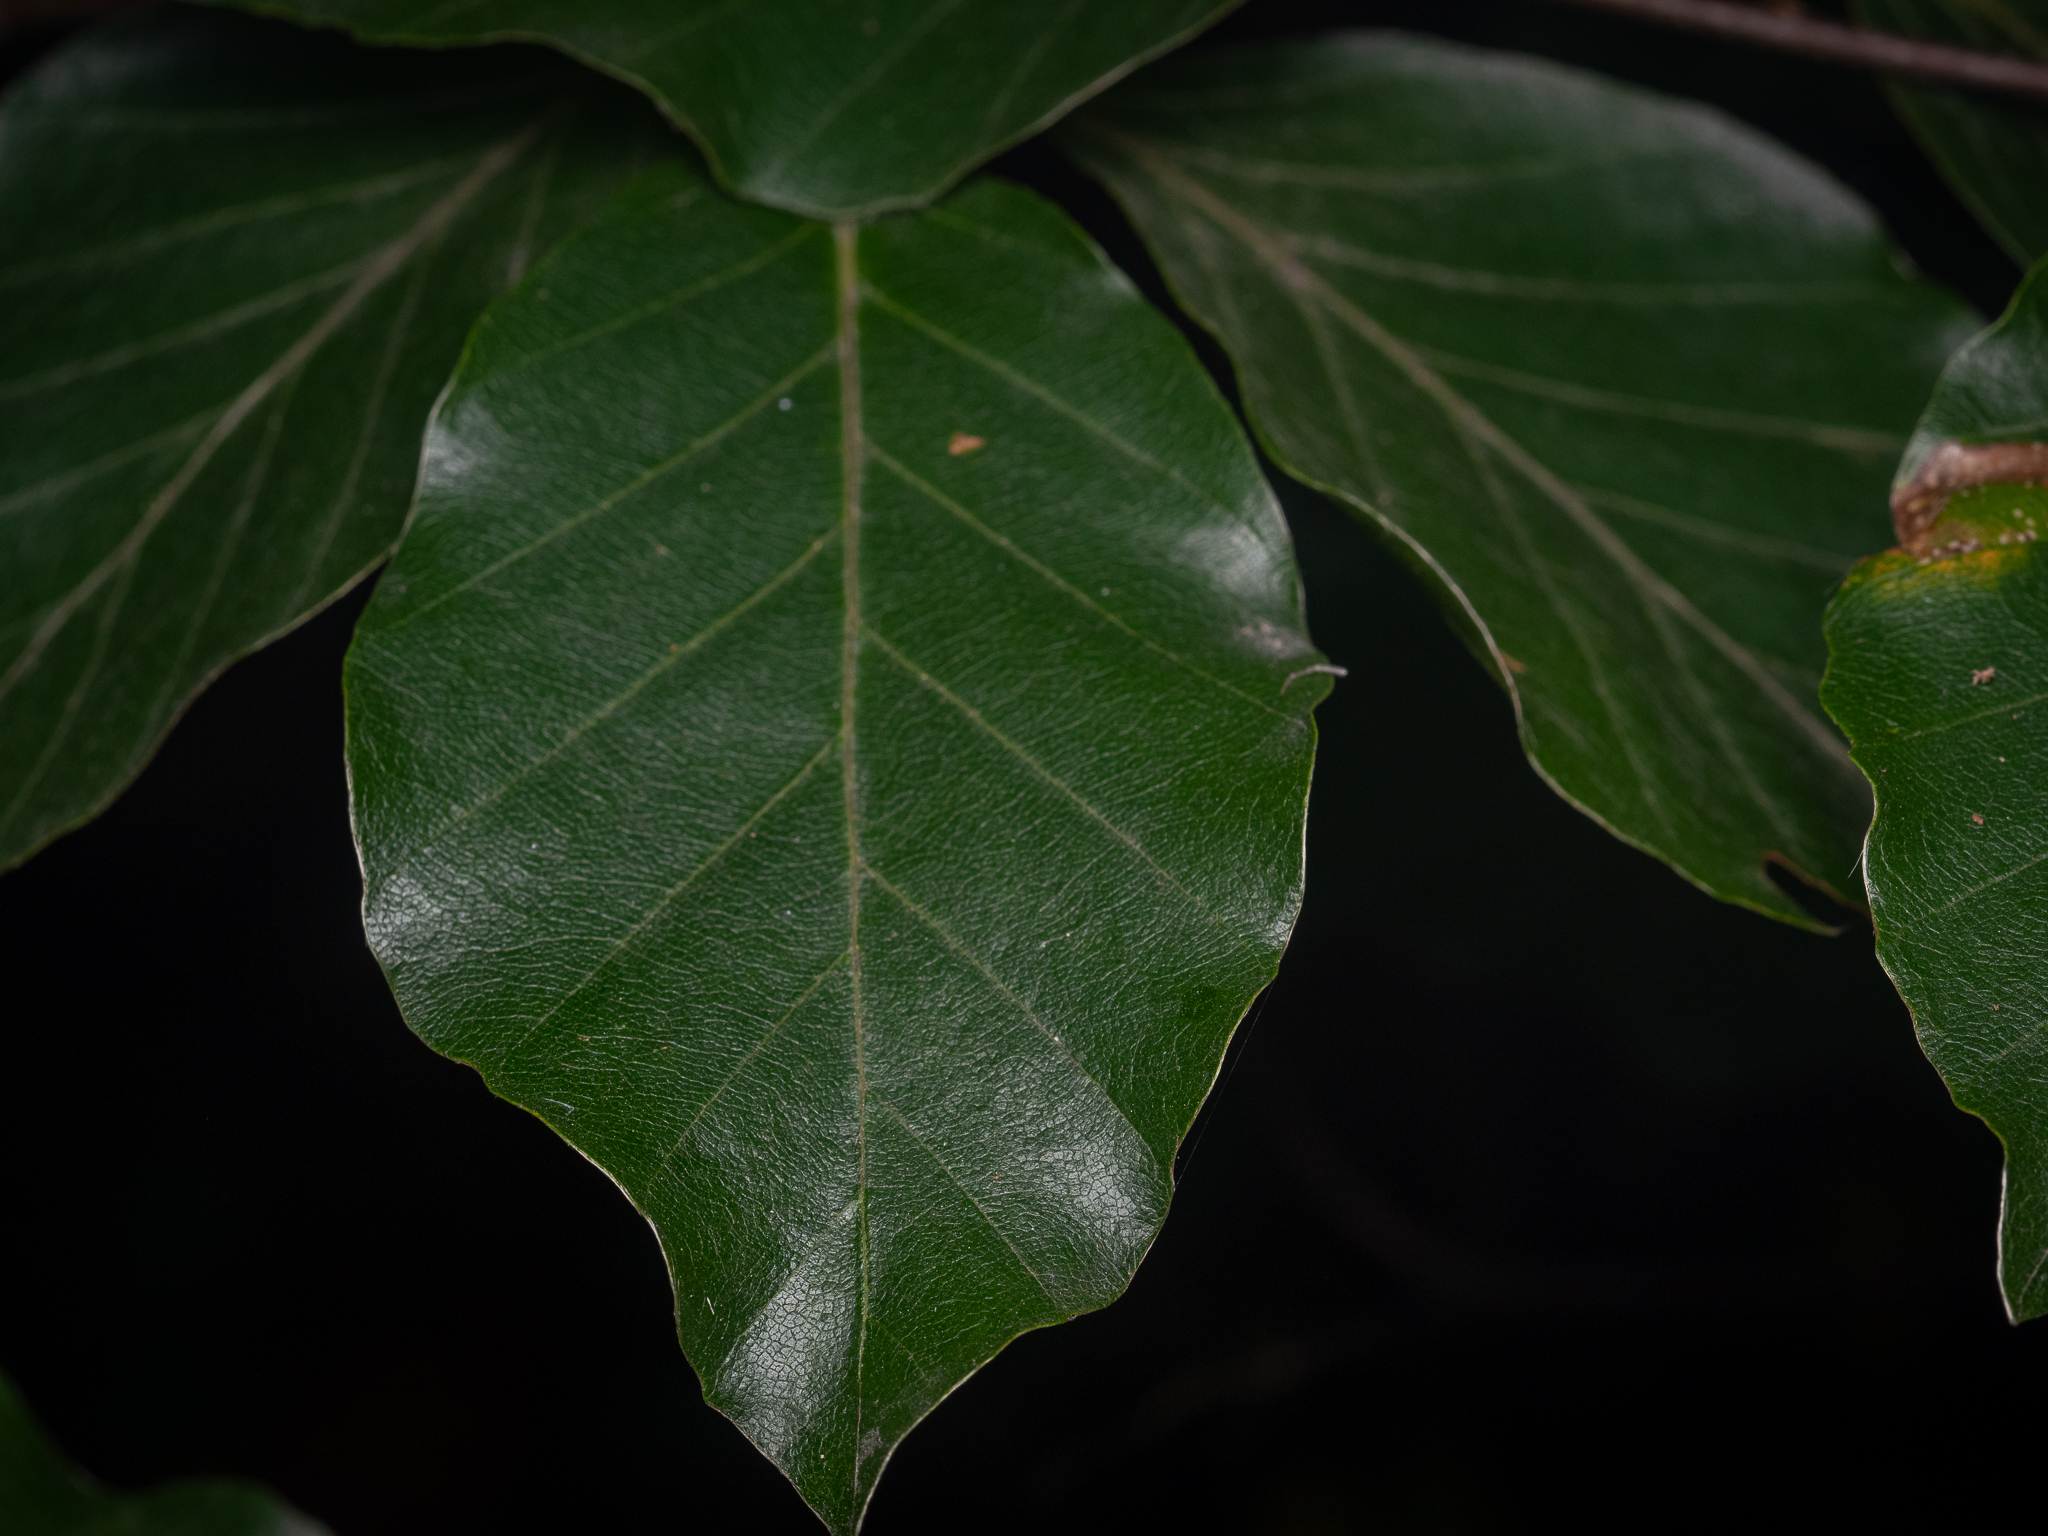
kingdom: Plantae
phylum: Tracheophyta
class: Magnoliopsida
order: Fagales
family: Fagaceae
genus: Fagus
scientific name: Fagus sylvatica
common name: Beech
